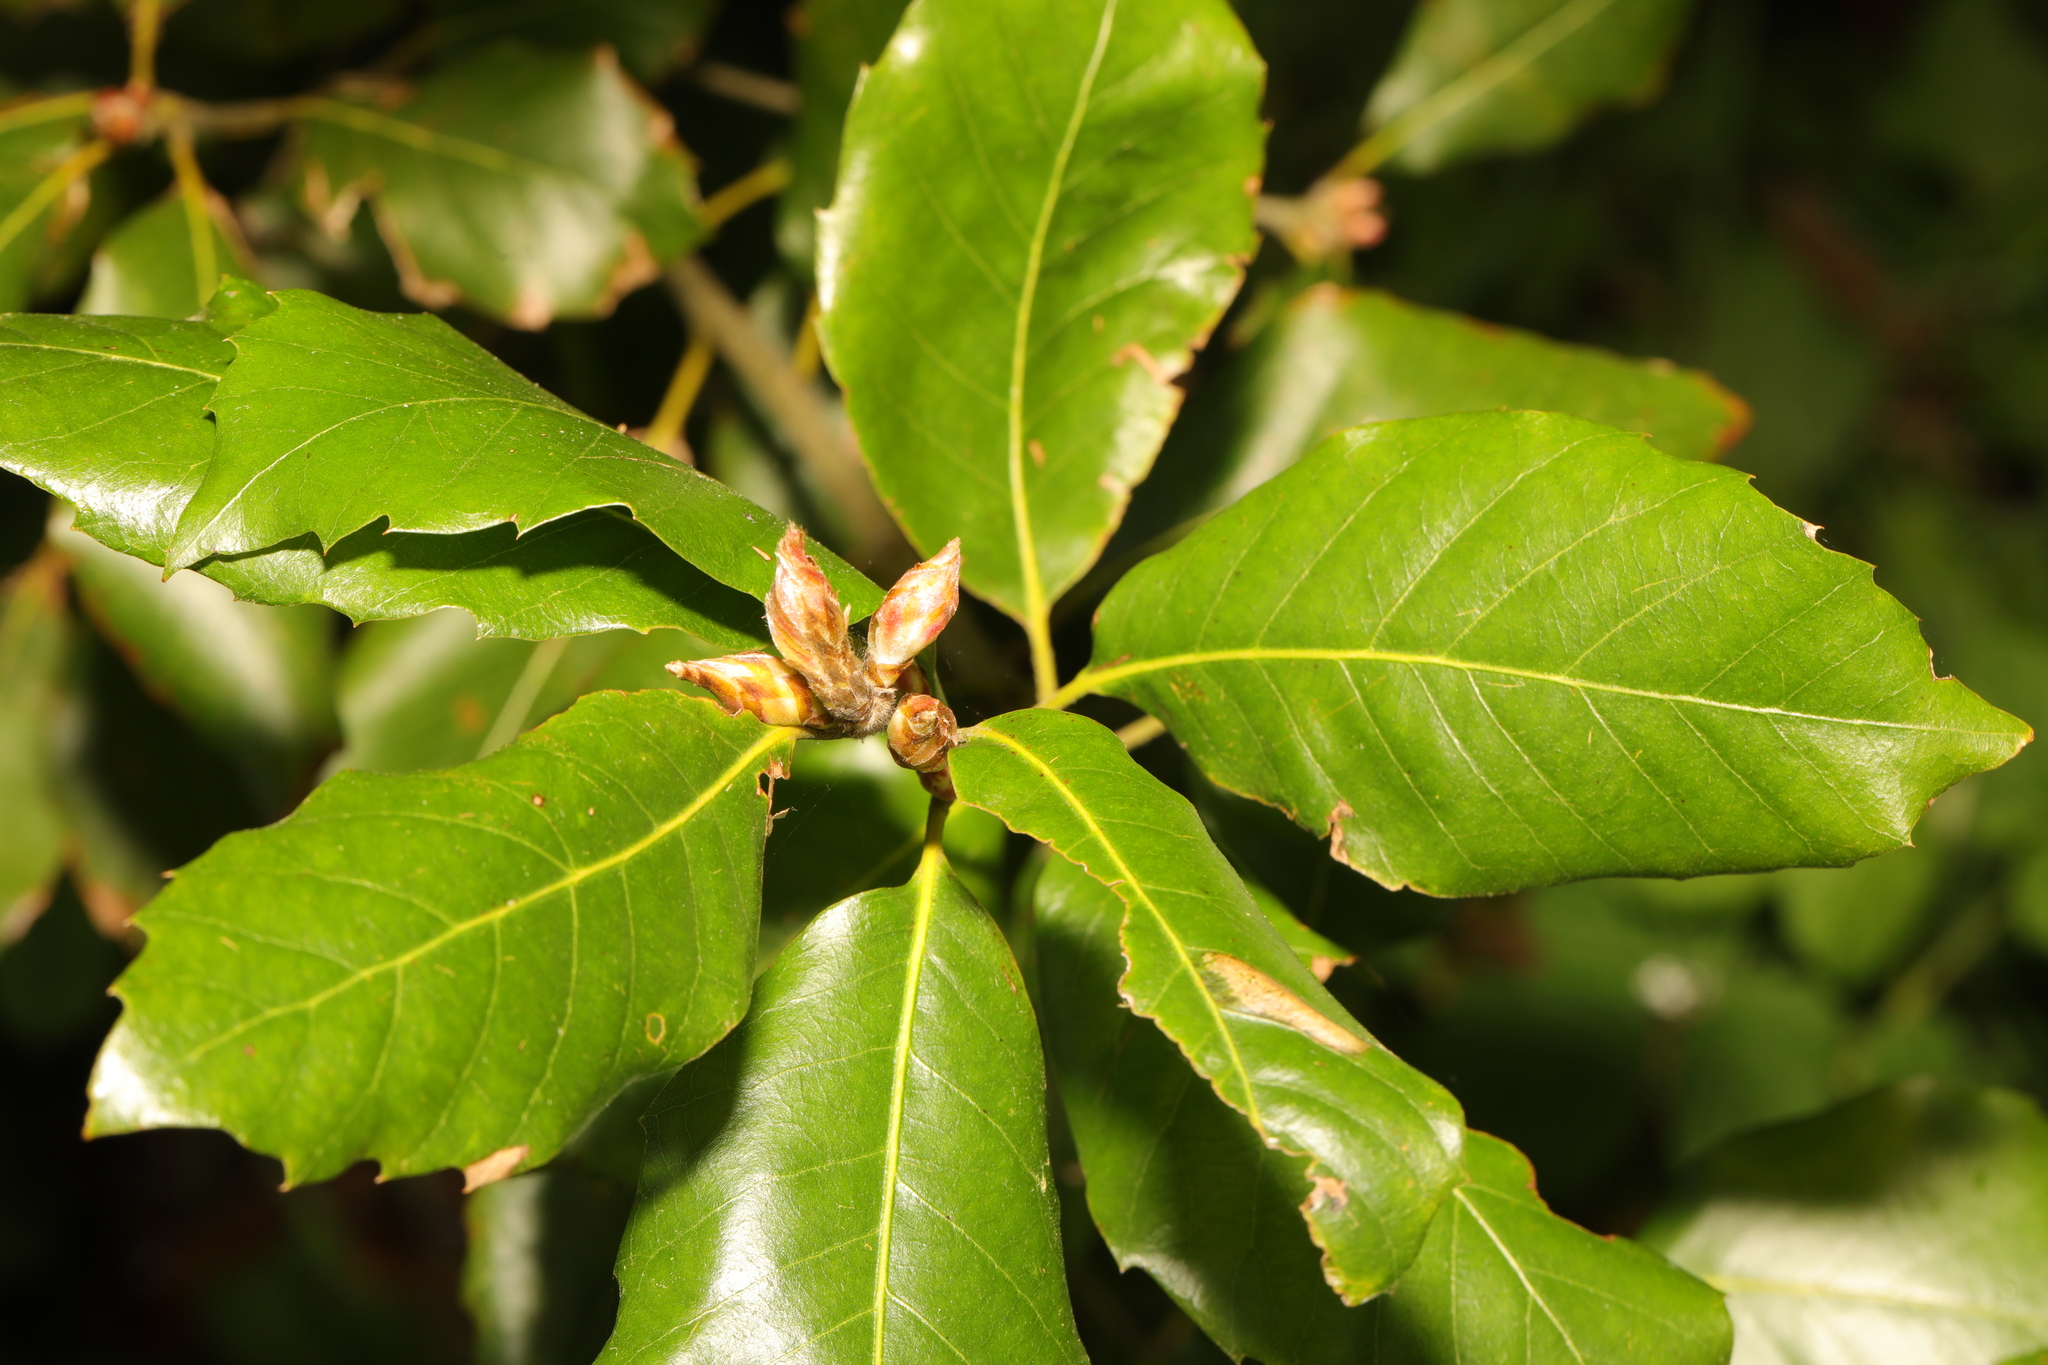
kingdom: Plantae
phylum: Tracheophyta
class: Magnoliopsida
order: Fagales
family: Fagaceae
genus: Quercus
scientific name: Quercus ilex
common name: Evergreen oak
